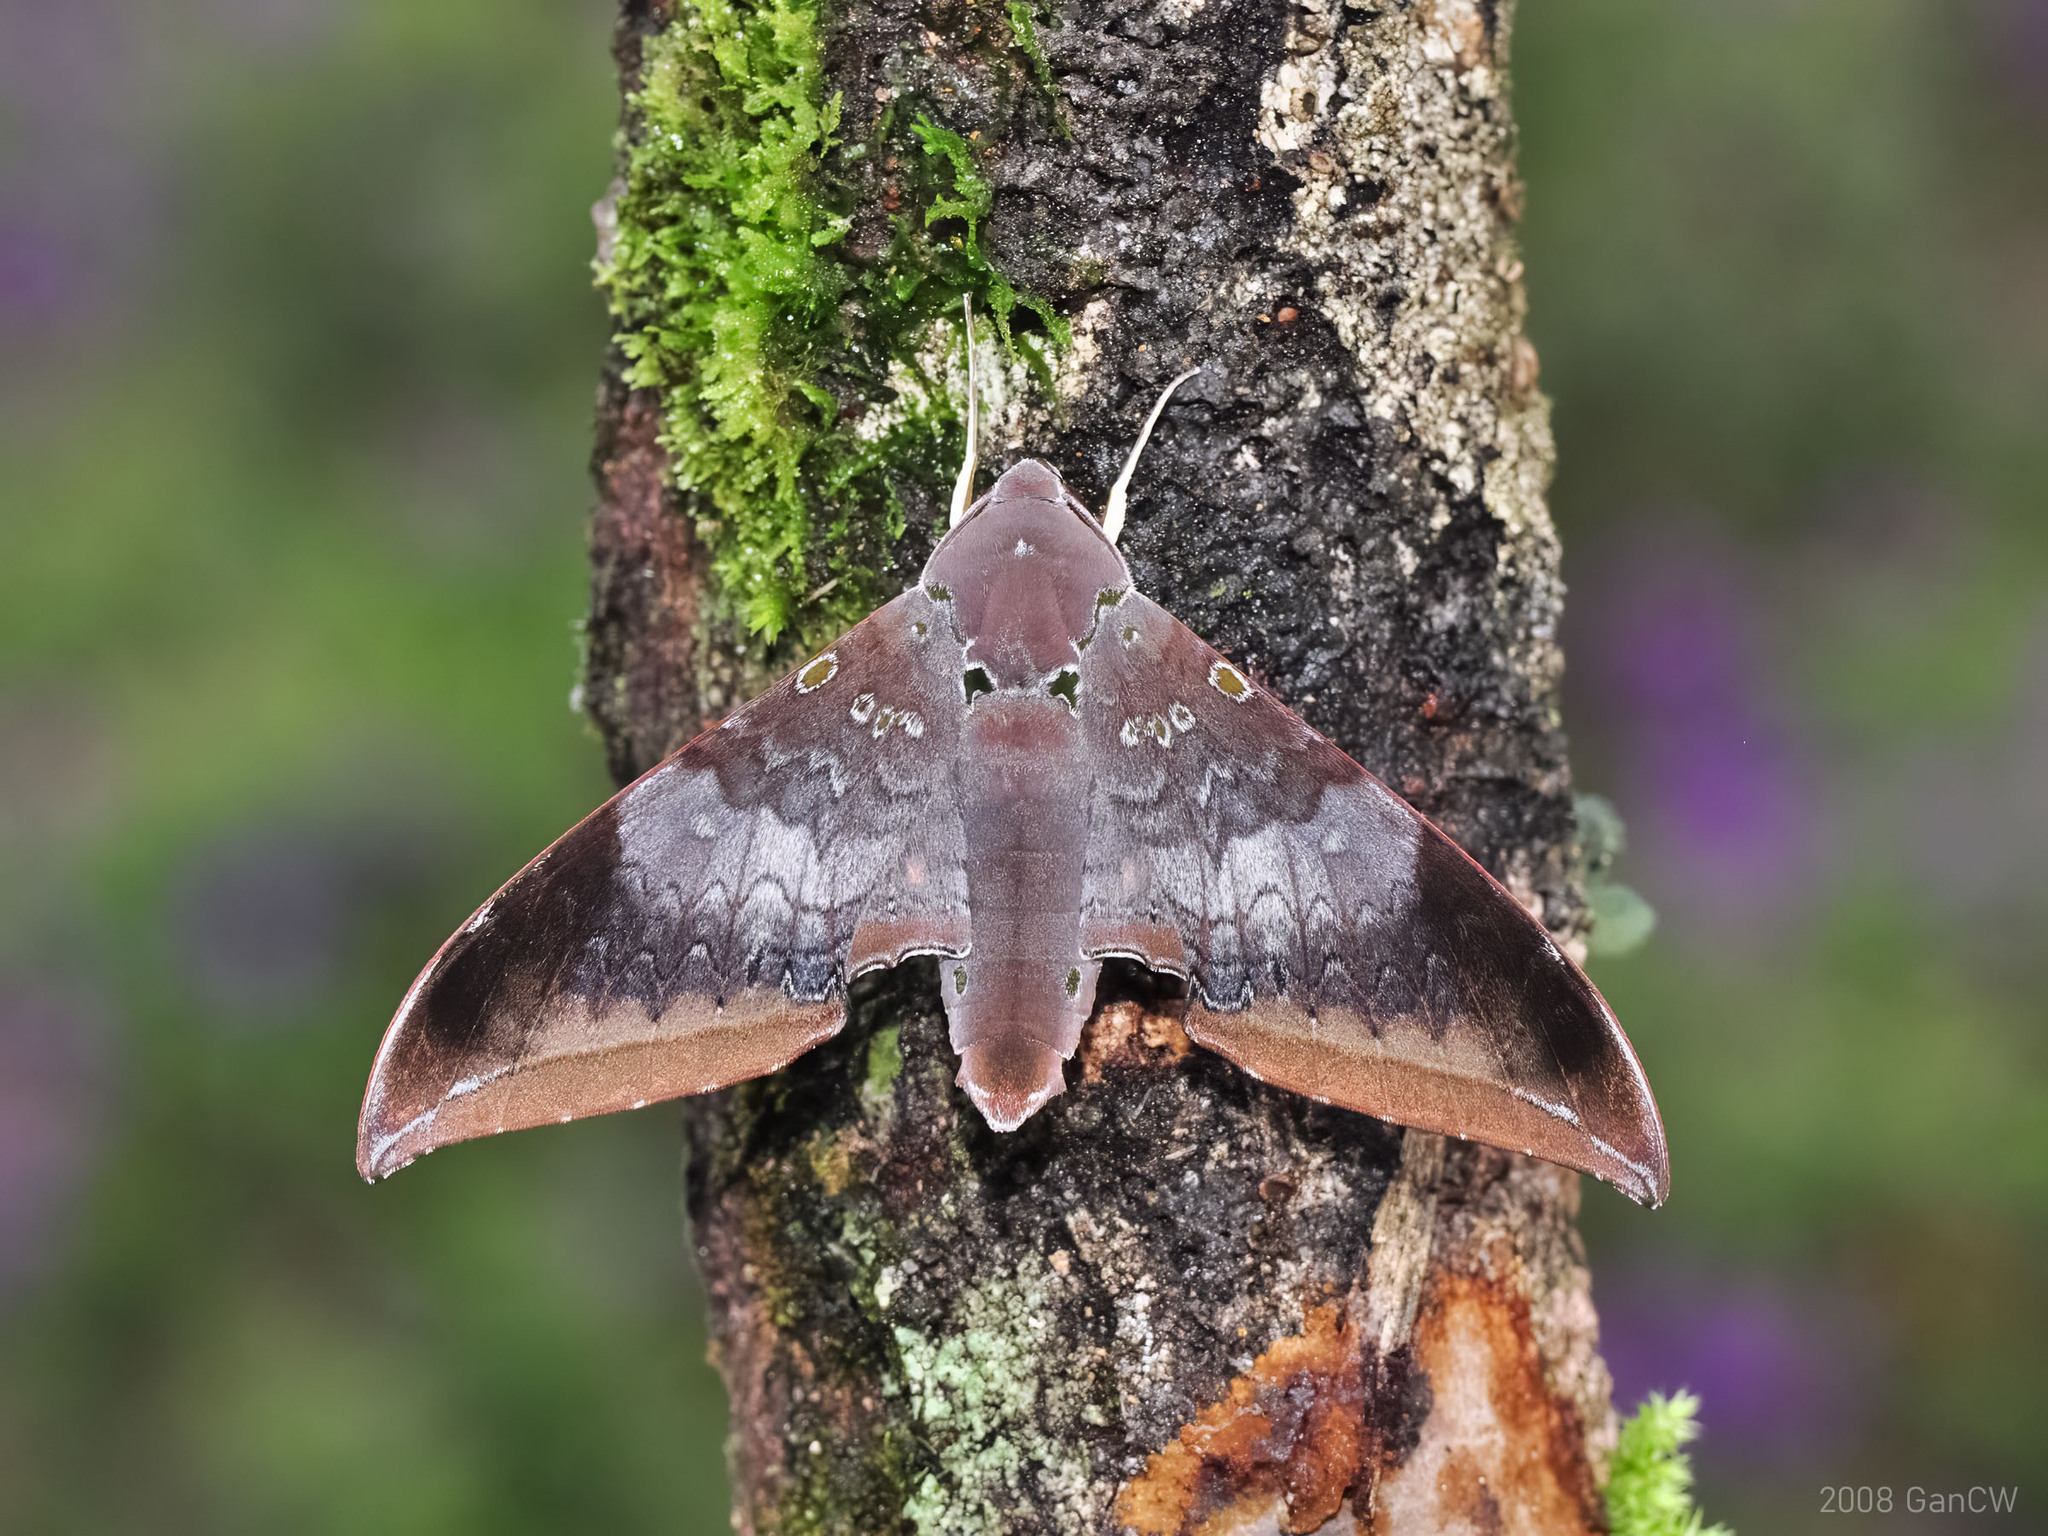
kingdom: Animalia
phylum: Arthropoda
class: Insecta
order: Lepidoptera
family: Sphingidae
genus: Ambulyx
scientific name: Ambulyx moorei
